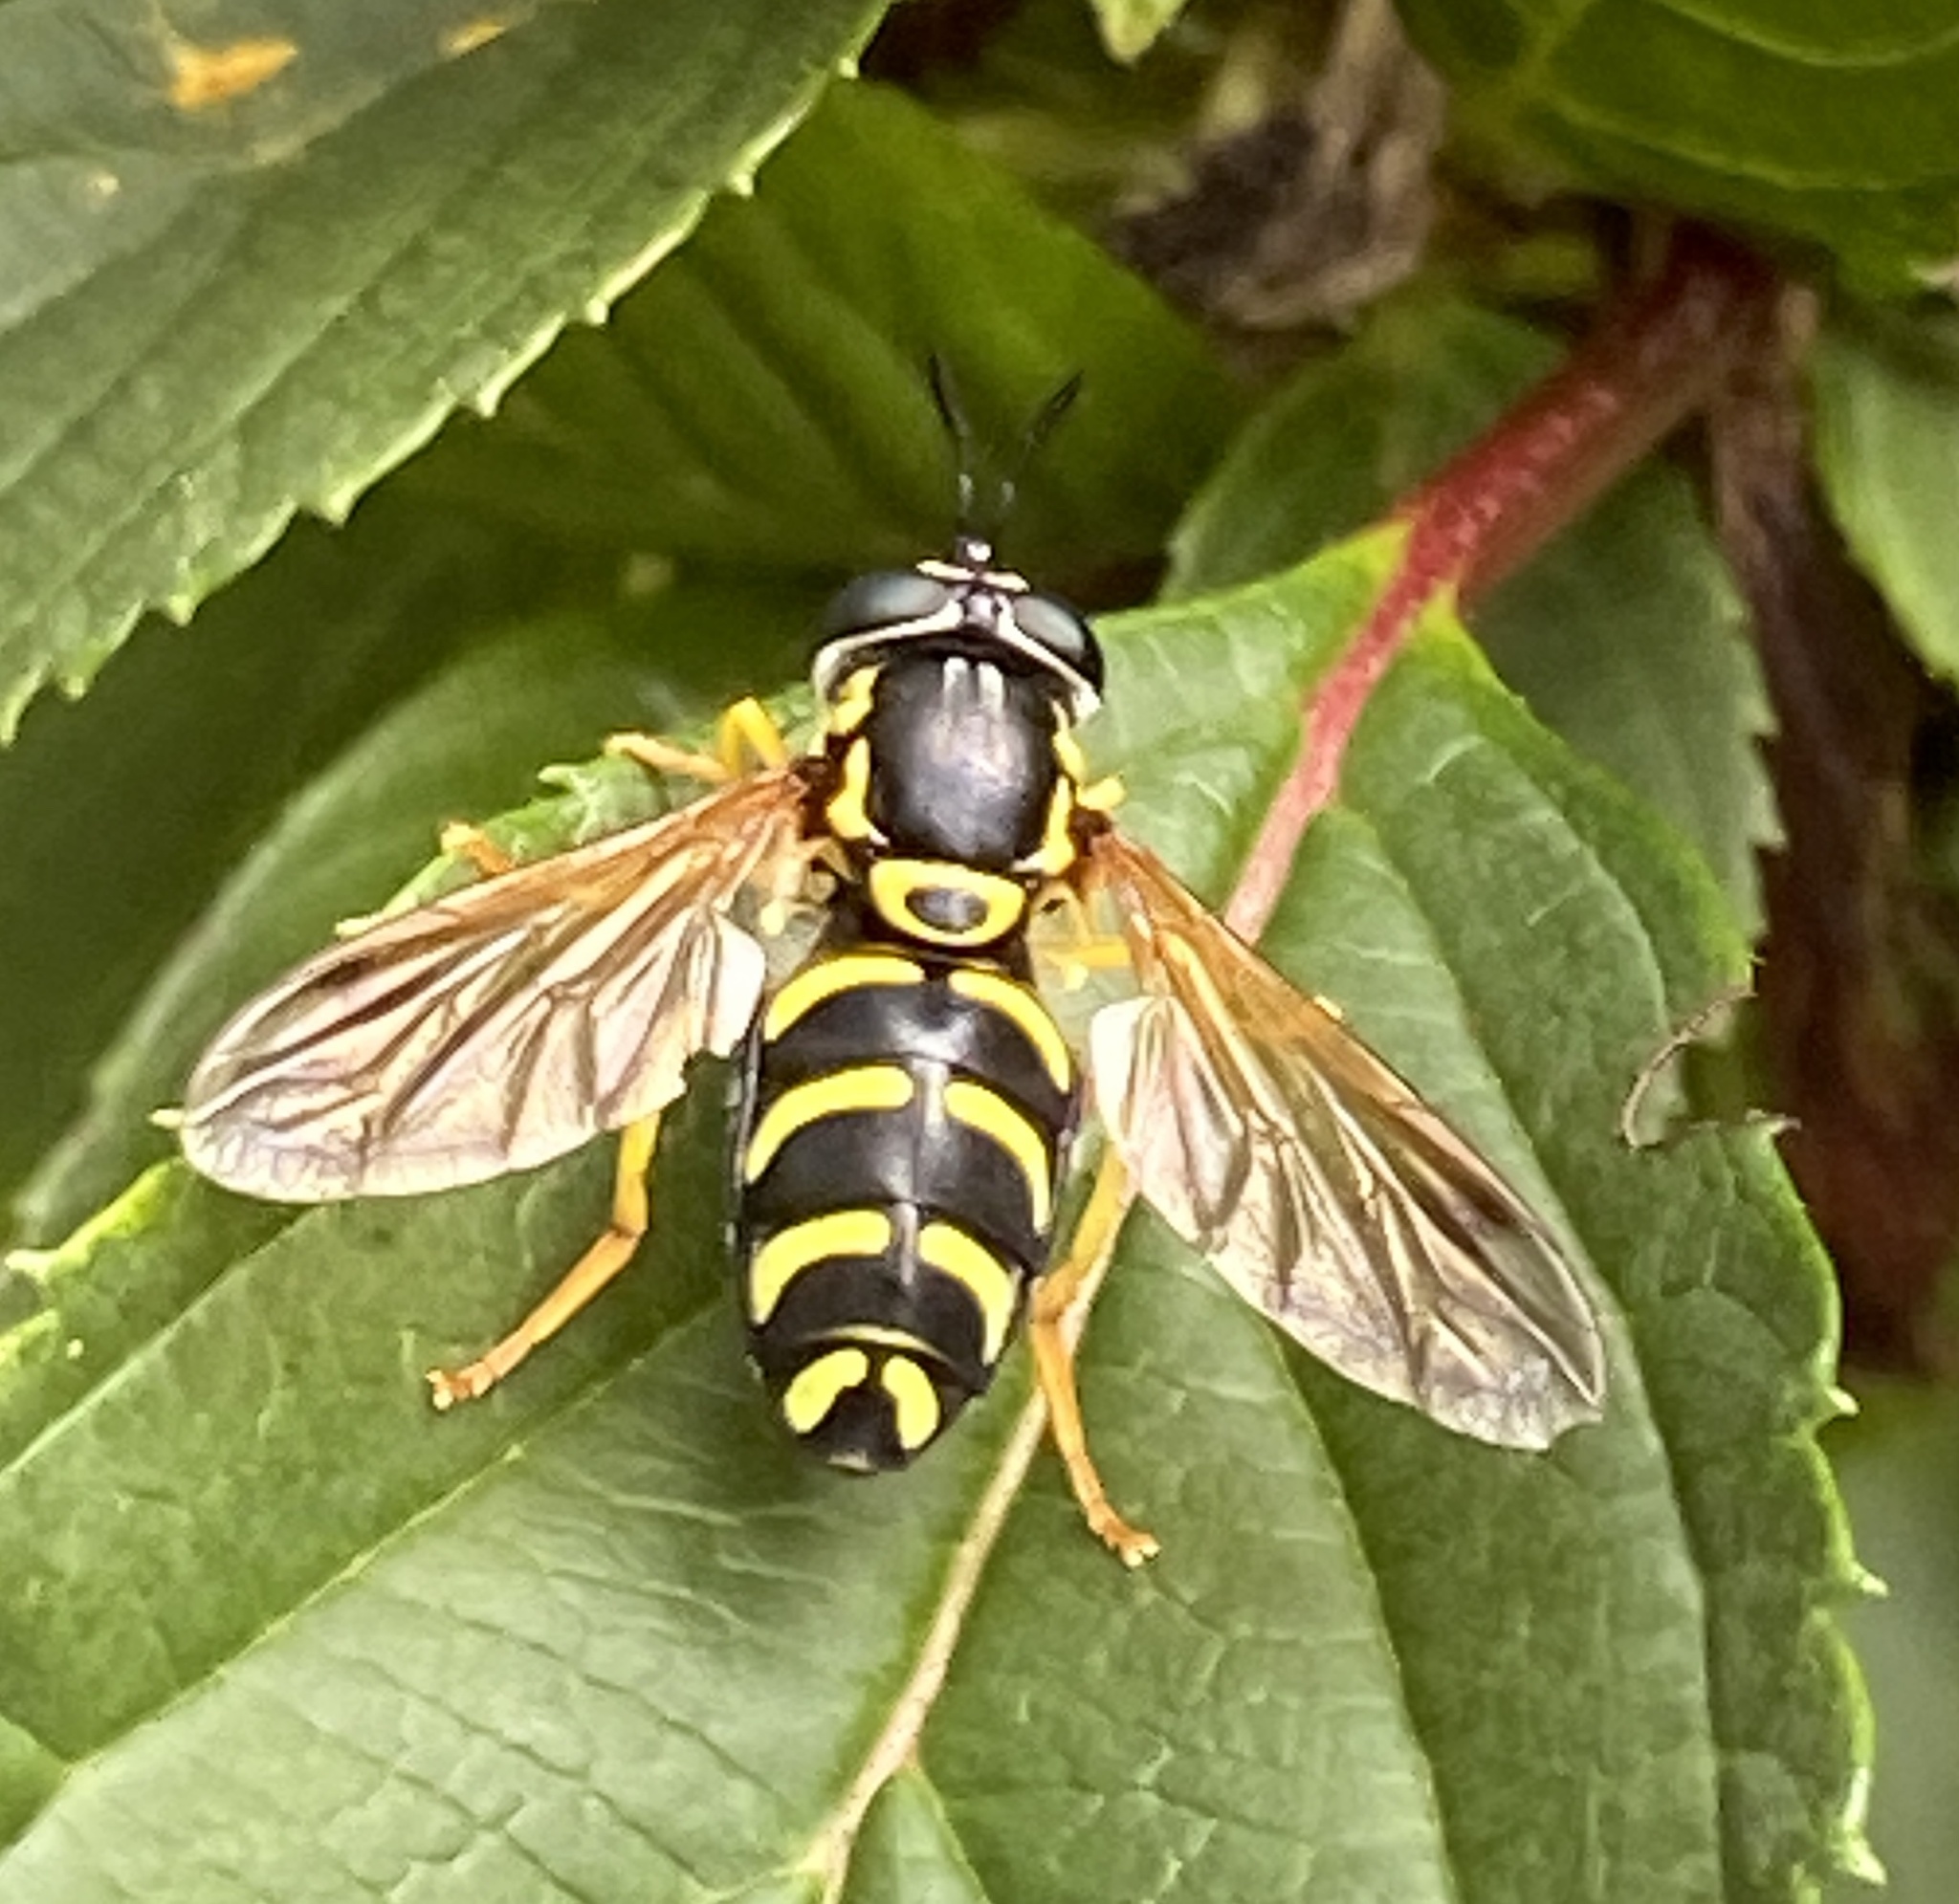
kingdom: Animalia
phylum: Arthropoda
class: Insecta
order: Diptera
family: Syrphidae
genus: Chrysotoxum
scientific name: Chrysotoxum festivum
